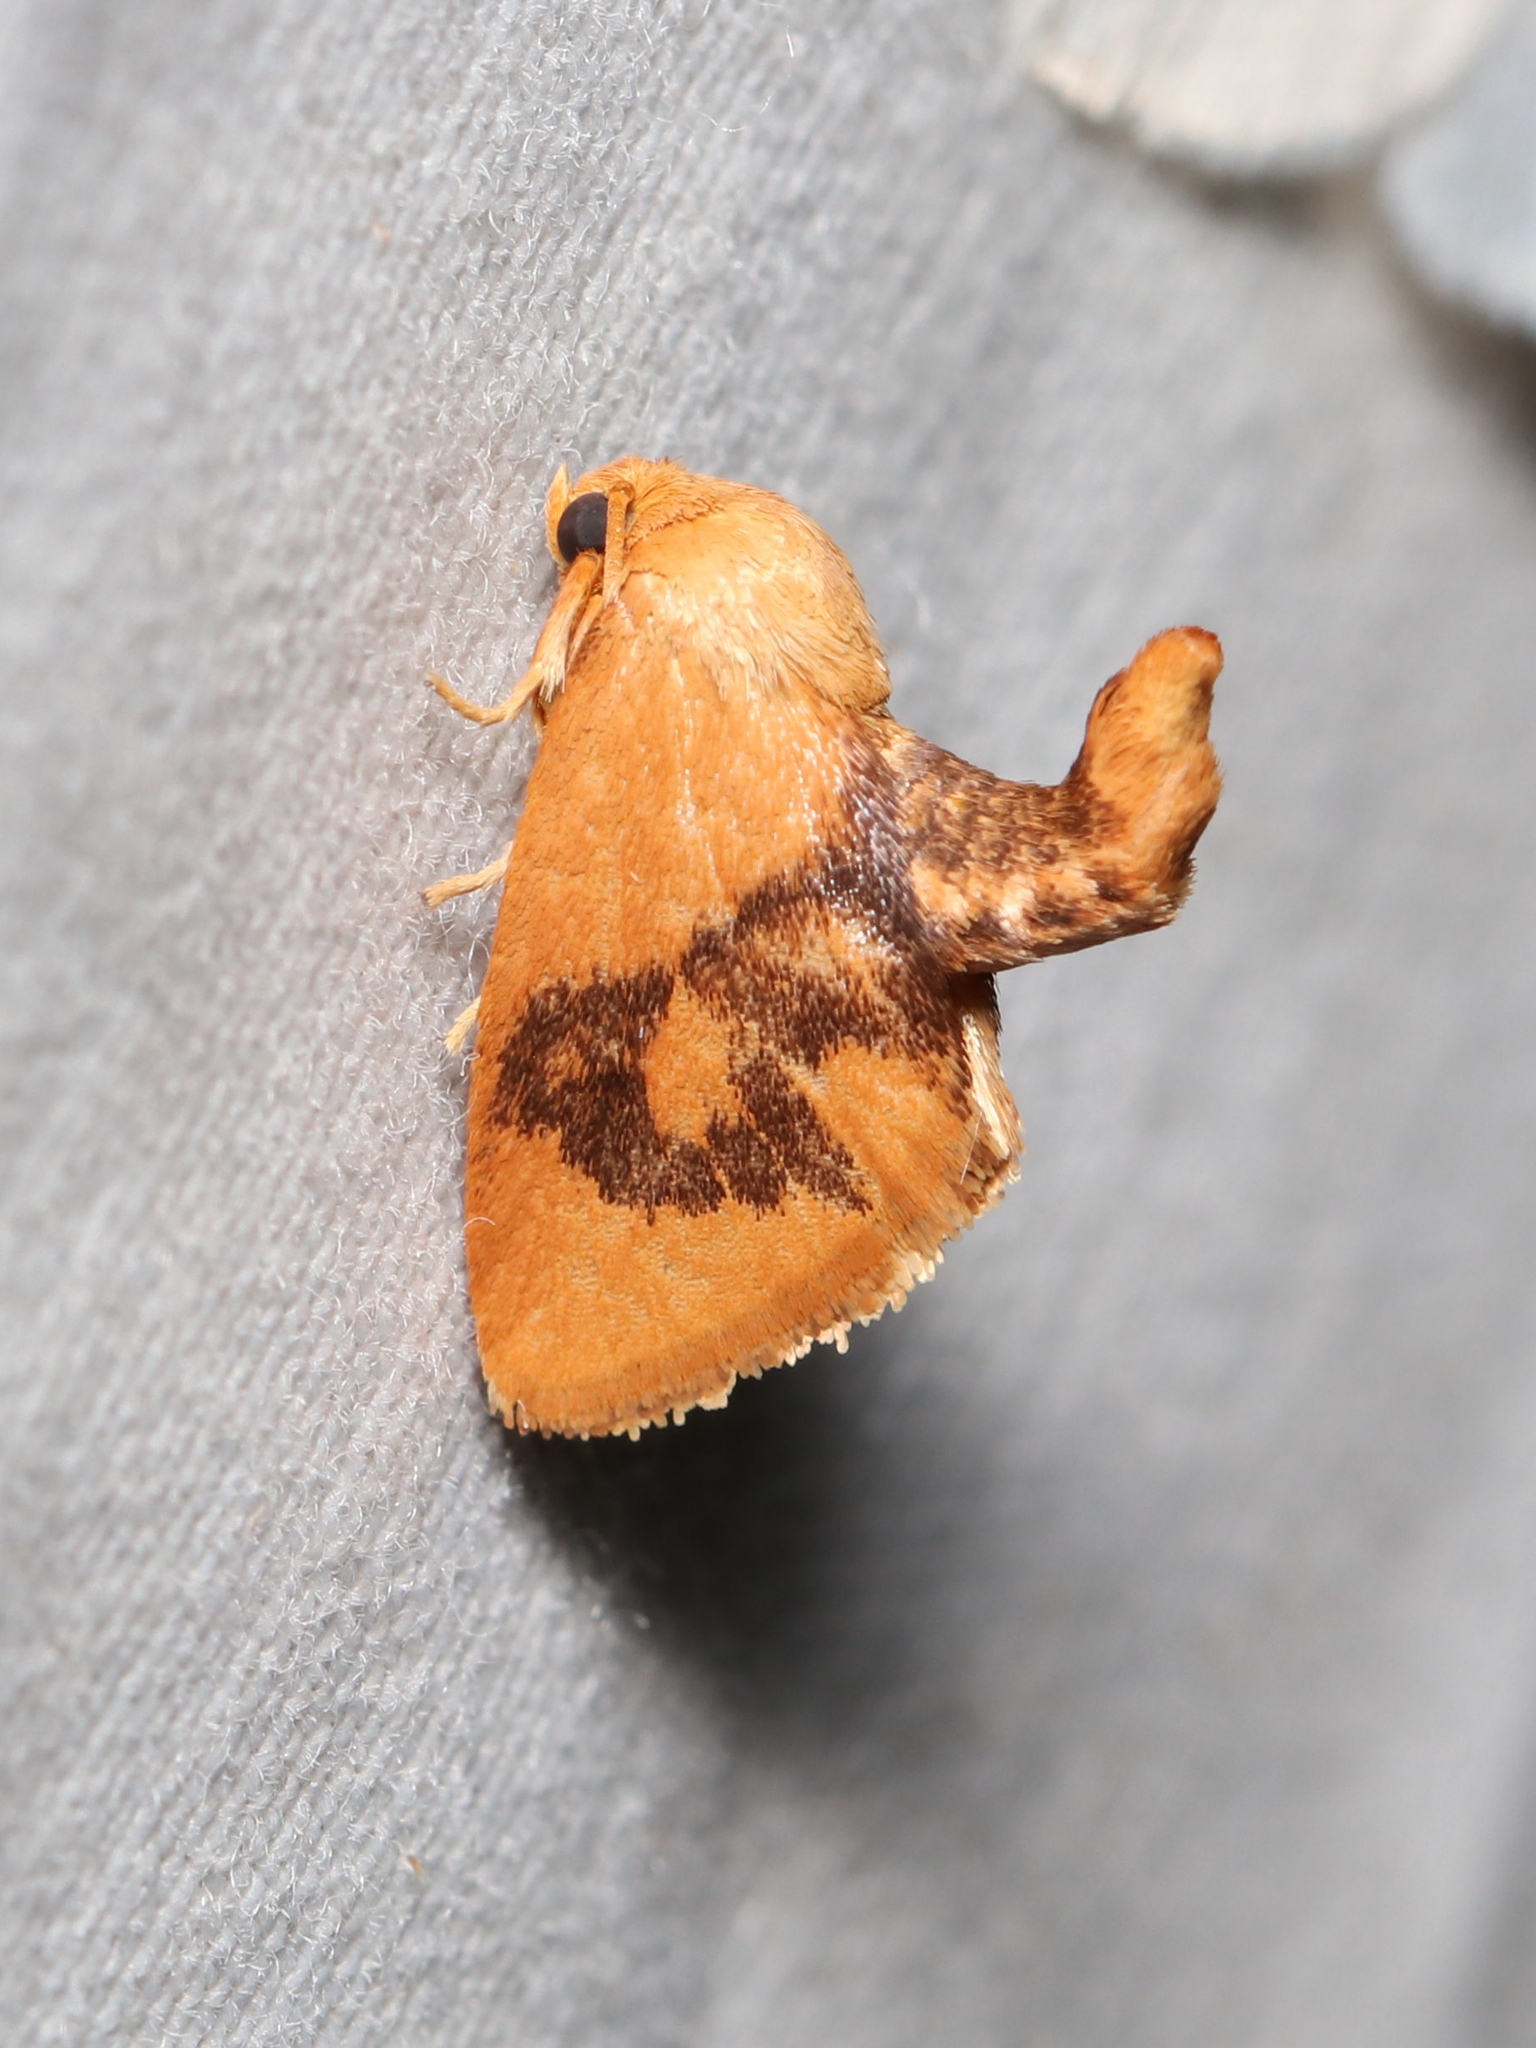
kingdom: Animalia
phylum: Arthropoda
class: Insecta
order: Lepidoptera
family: Limacodidae
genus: Tortricidia
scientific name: Tortricidia flexuosa
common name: Abbreviated button slug moth
